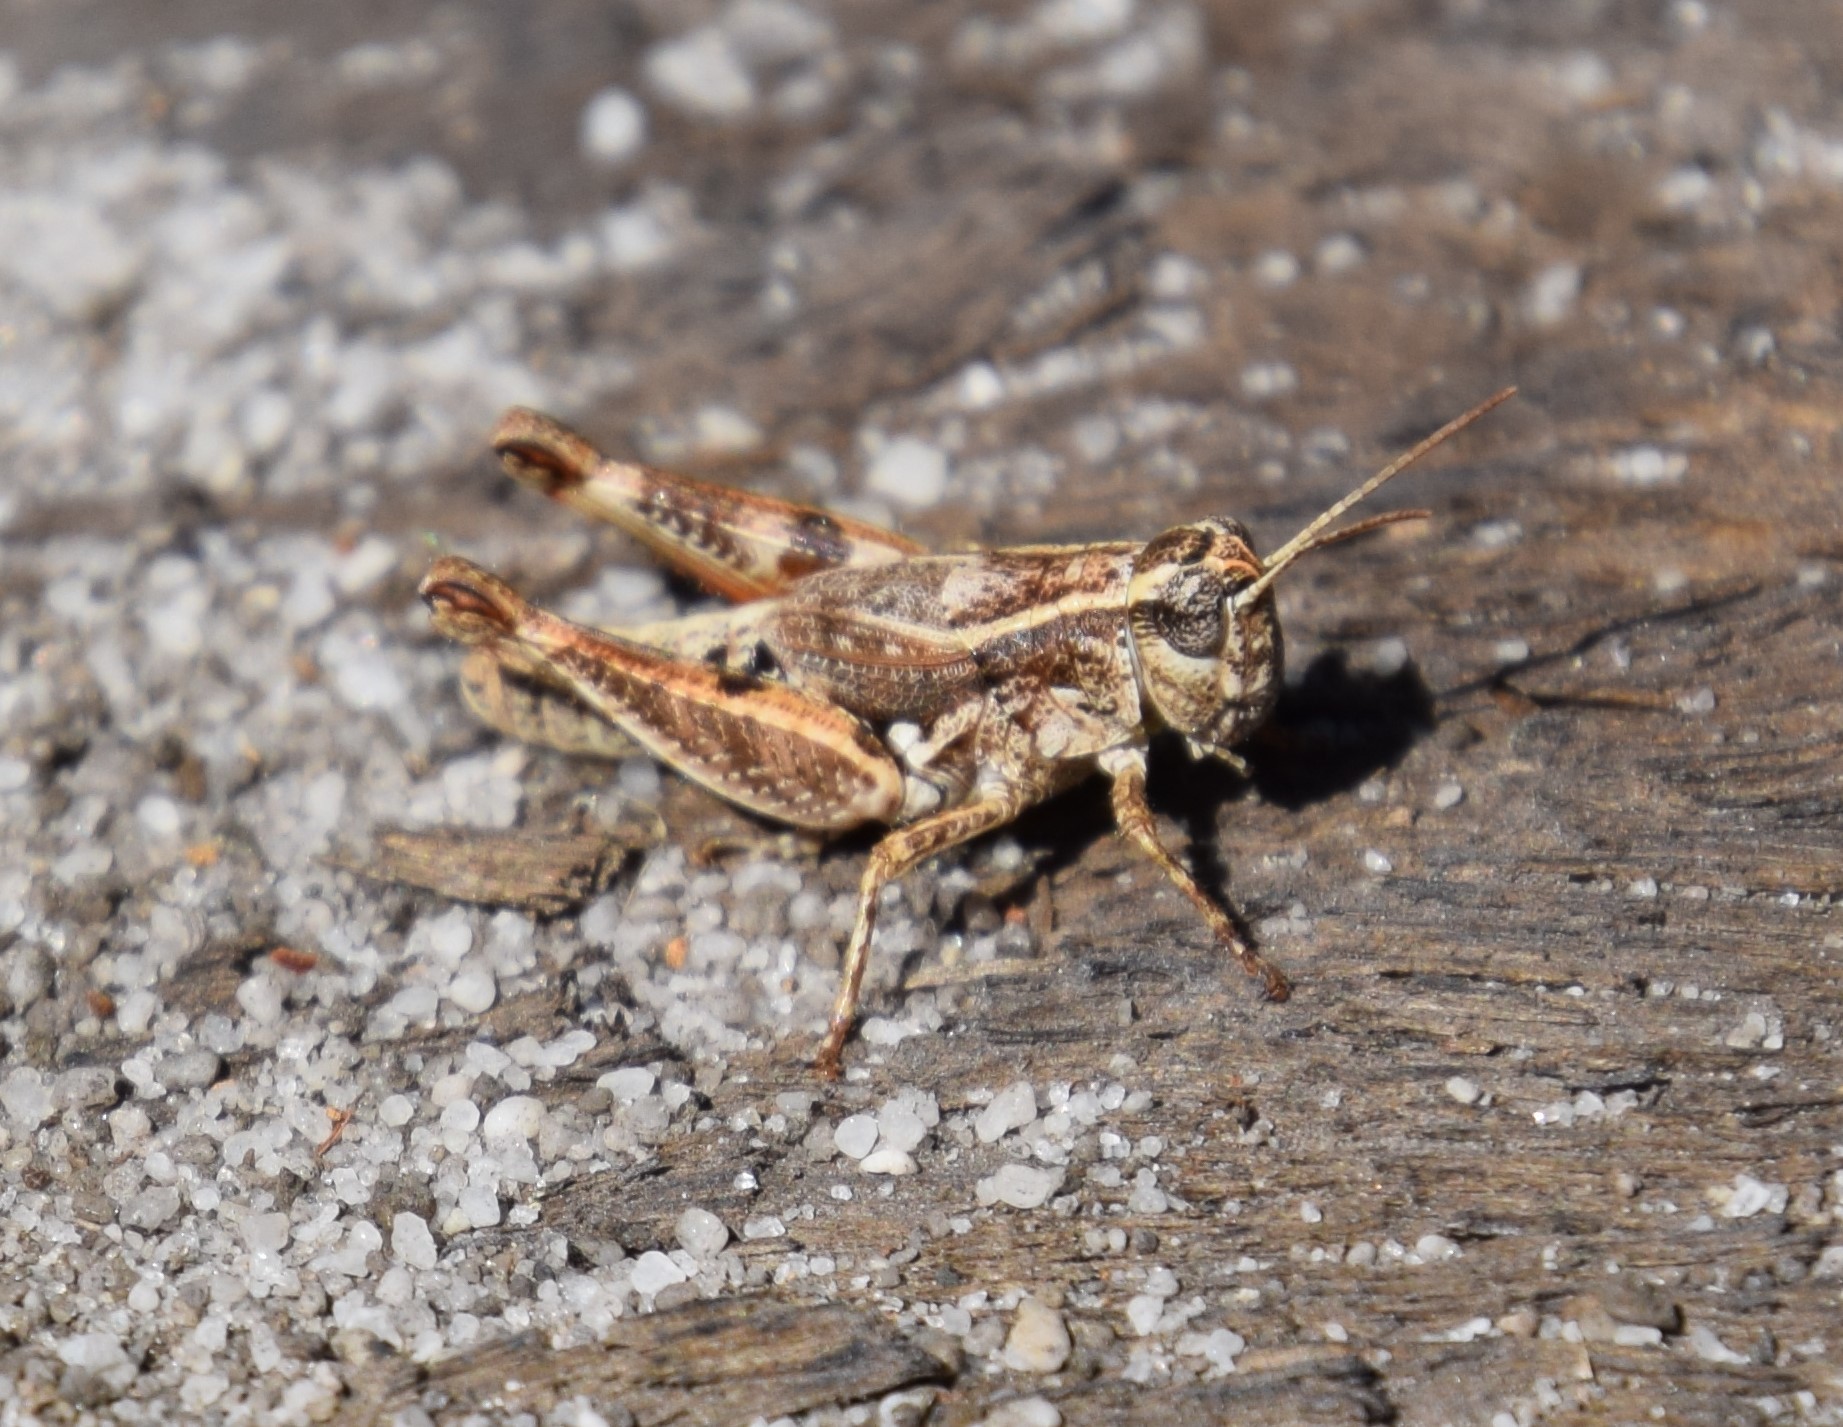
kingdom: Animalia
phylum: Arthropoda
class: Insecta
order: Orthoptera
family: Acrididae
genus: Phaulacridium
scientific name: Phaulacridium vittatum
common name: Wingless grasshopper
